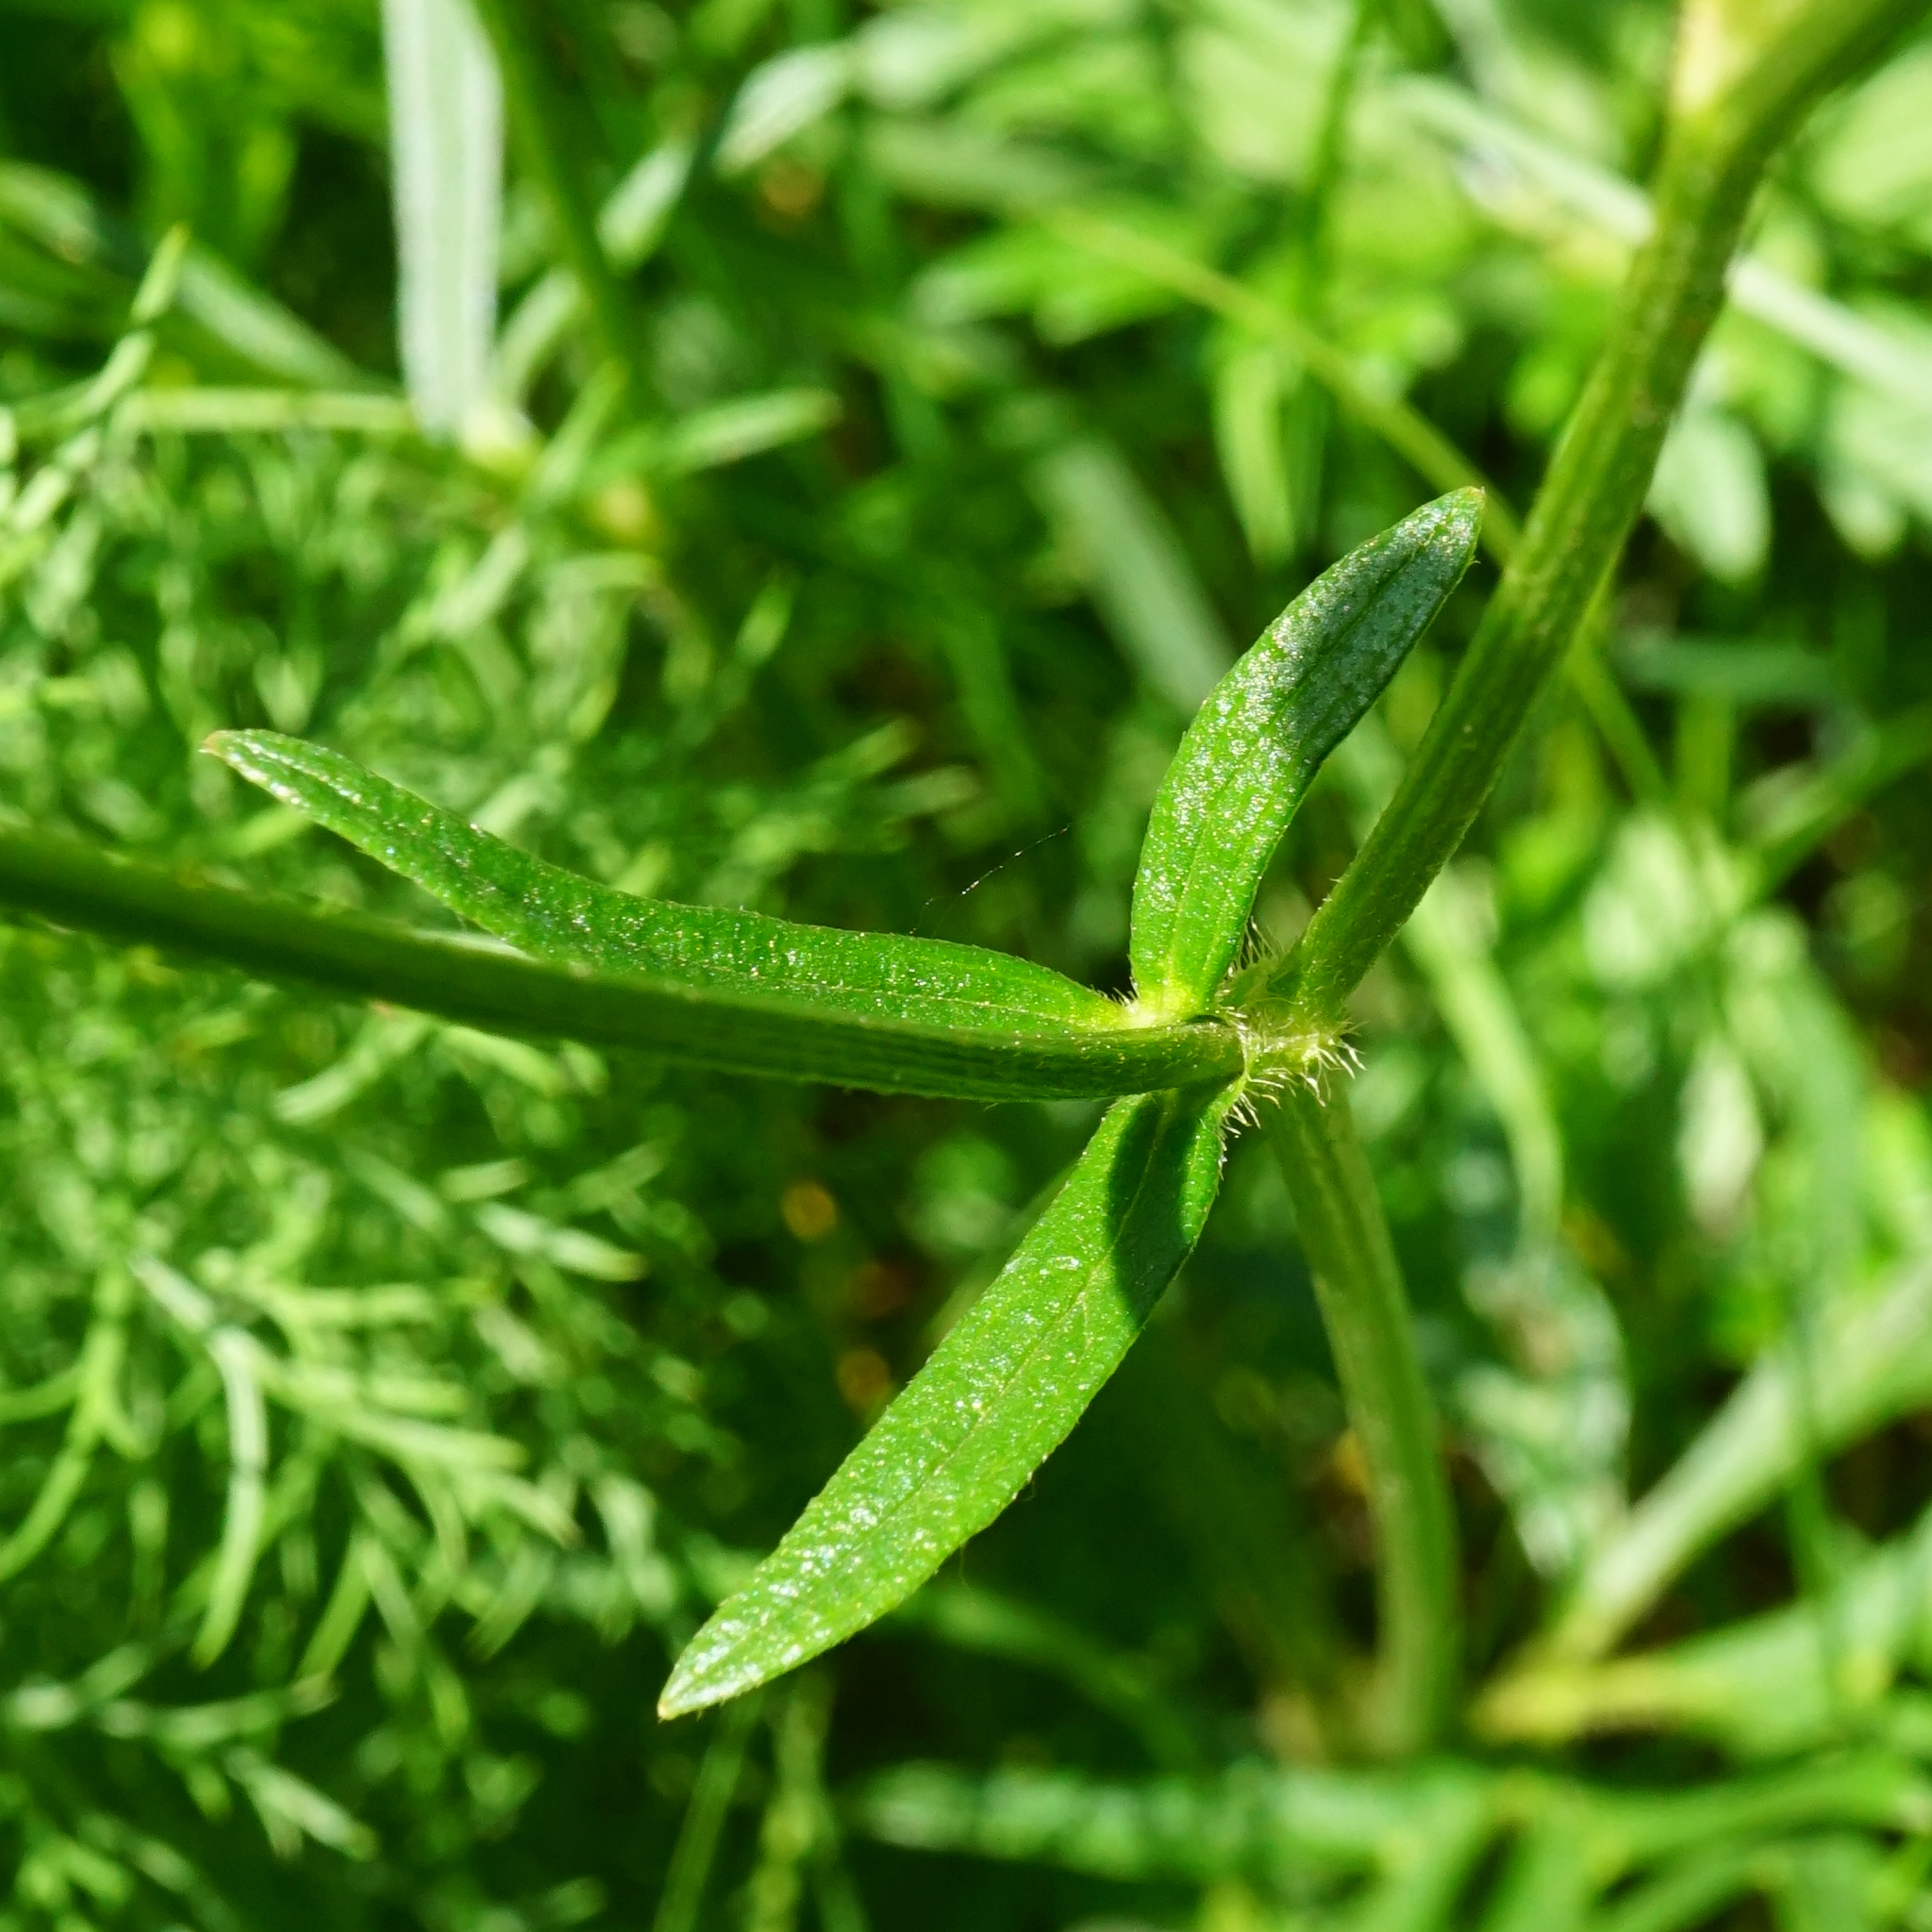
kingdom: Plantae
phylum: Tracheophyta
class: Magnoliopsida
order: Ranunculales
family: Ranunculaceae
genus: Ranunculus
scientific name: Ranunculus polyanthemos
